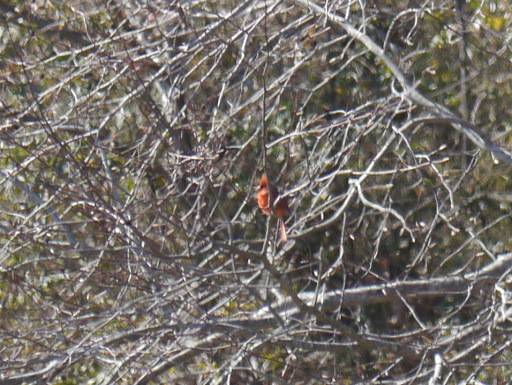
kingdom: Animalia
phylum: Chordata
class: Aves
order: Passeriformes
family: Cardinalidae
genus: Cardinalis
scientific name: Cardinalis cardinalis
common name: Northern cardinal
